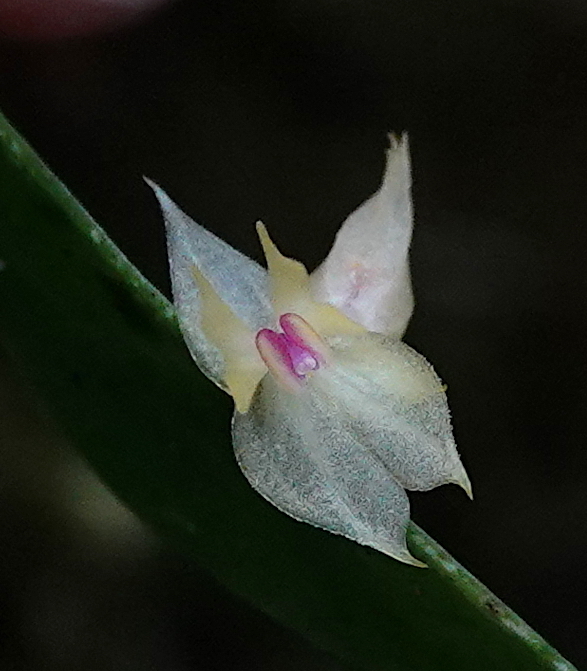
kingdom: Plantae
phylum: Tracheophyta
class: Liliopsida
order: Asparagales
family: Orchidaceae
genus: Lepanthes
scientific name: Lepanthes dunstervilleorum
